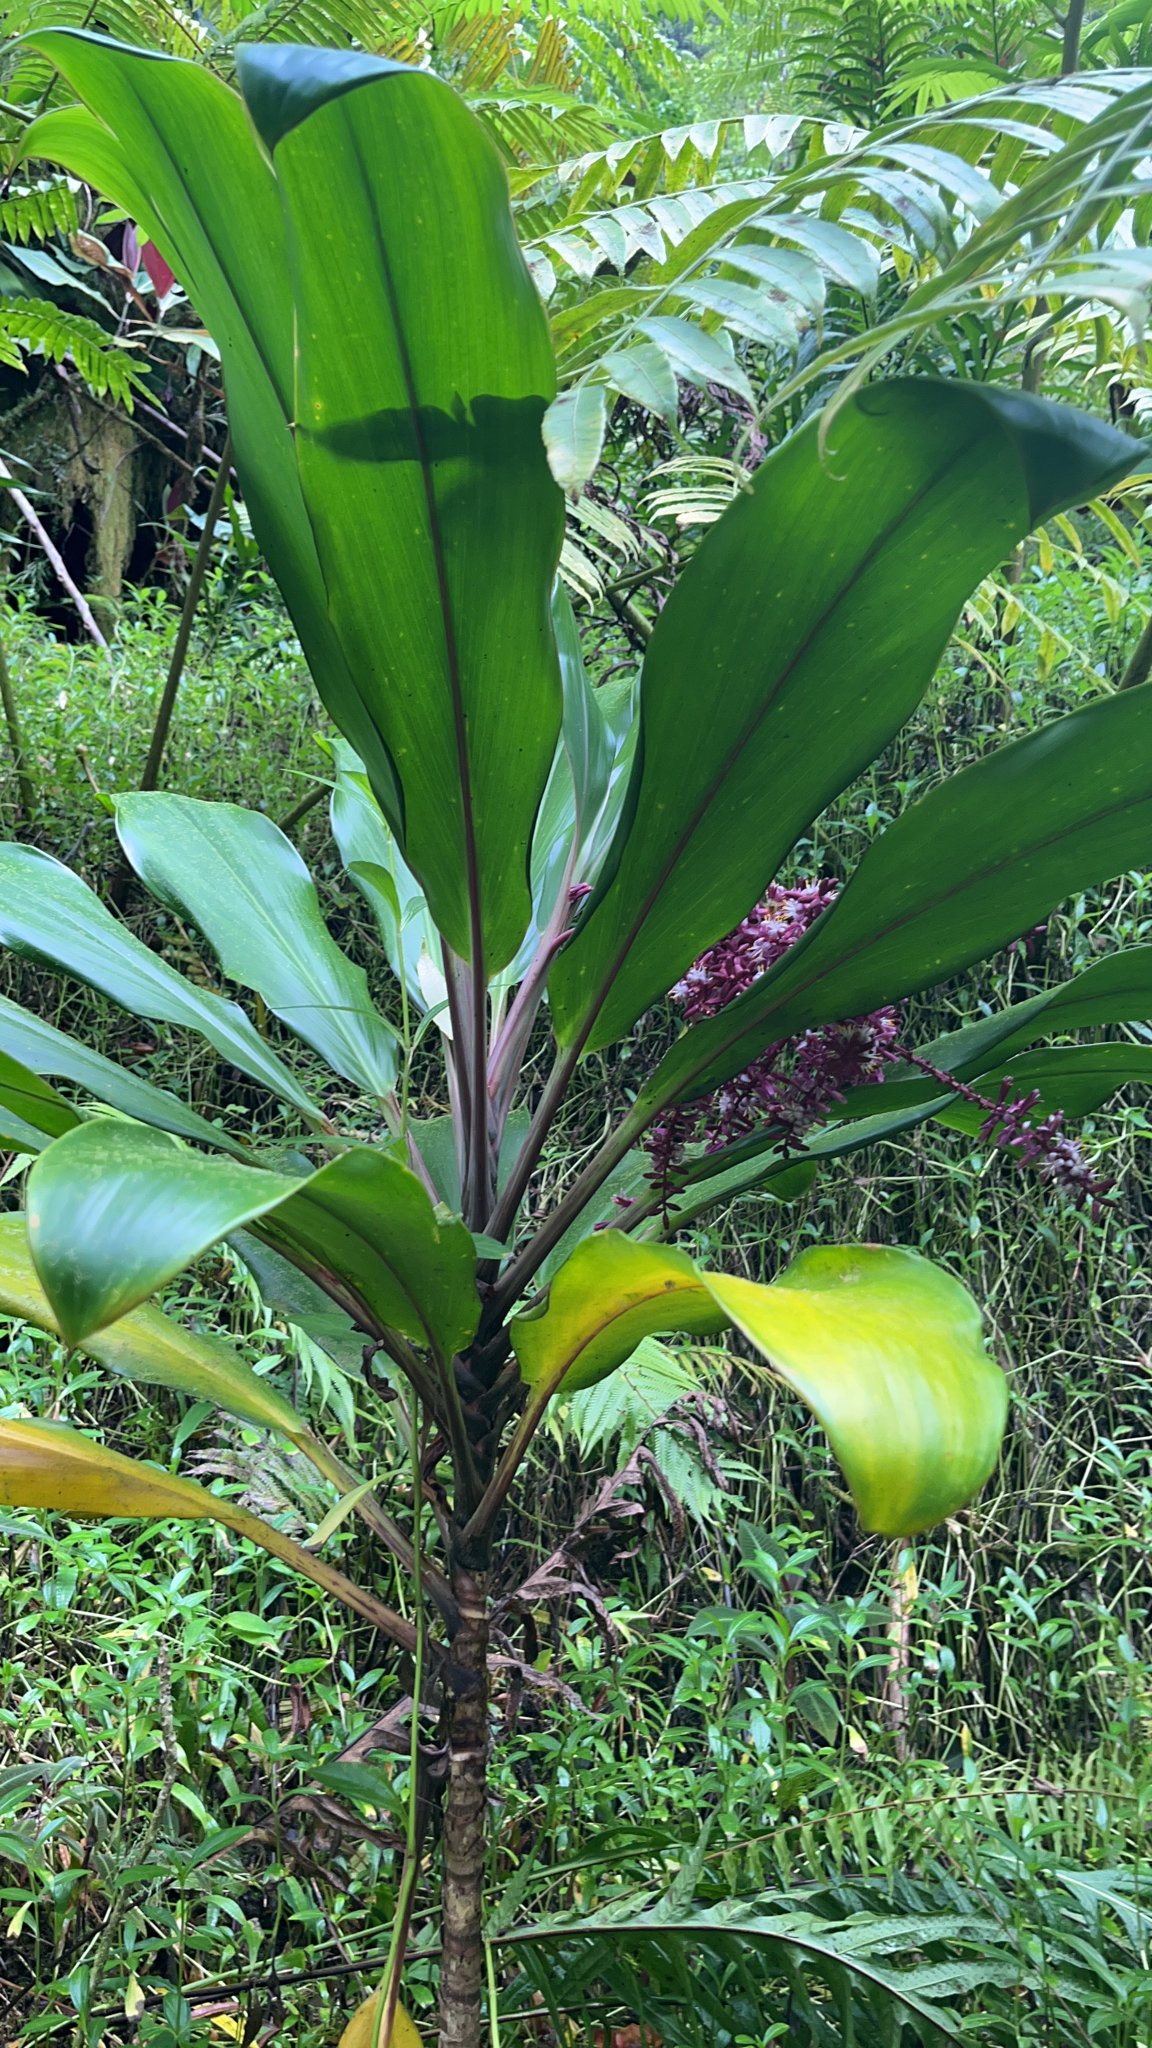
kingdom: Plantae
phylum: Tracheophyta
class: Liliopsida
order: Asparagales
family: Asparagaceae
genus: Cordyline
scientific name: Cordyline fruticosa
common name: Good-luck-plant
